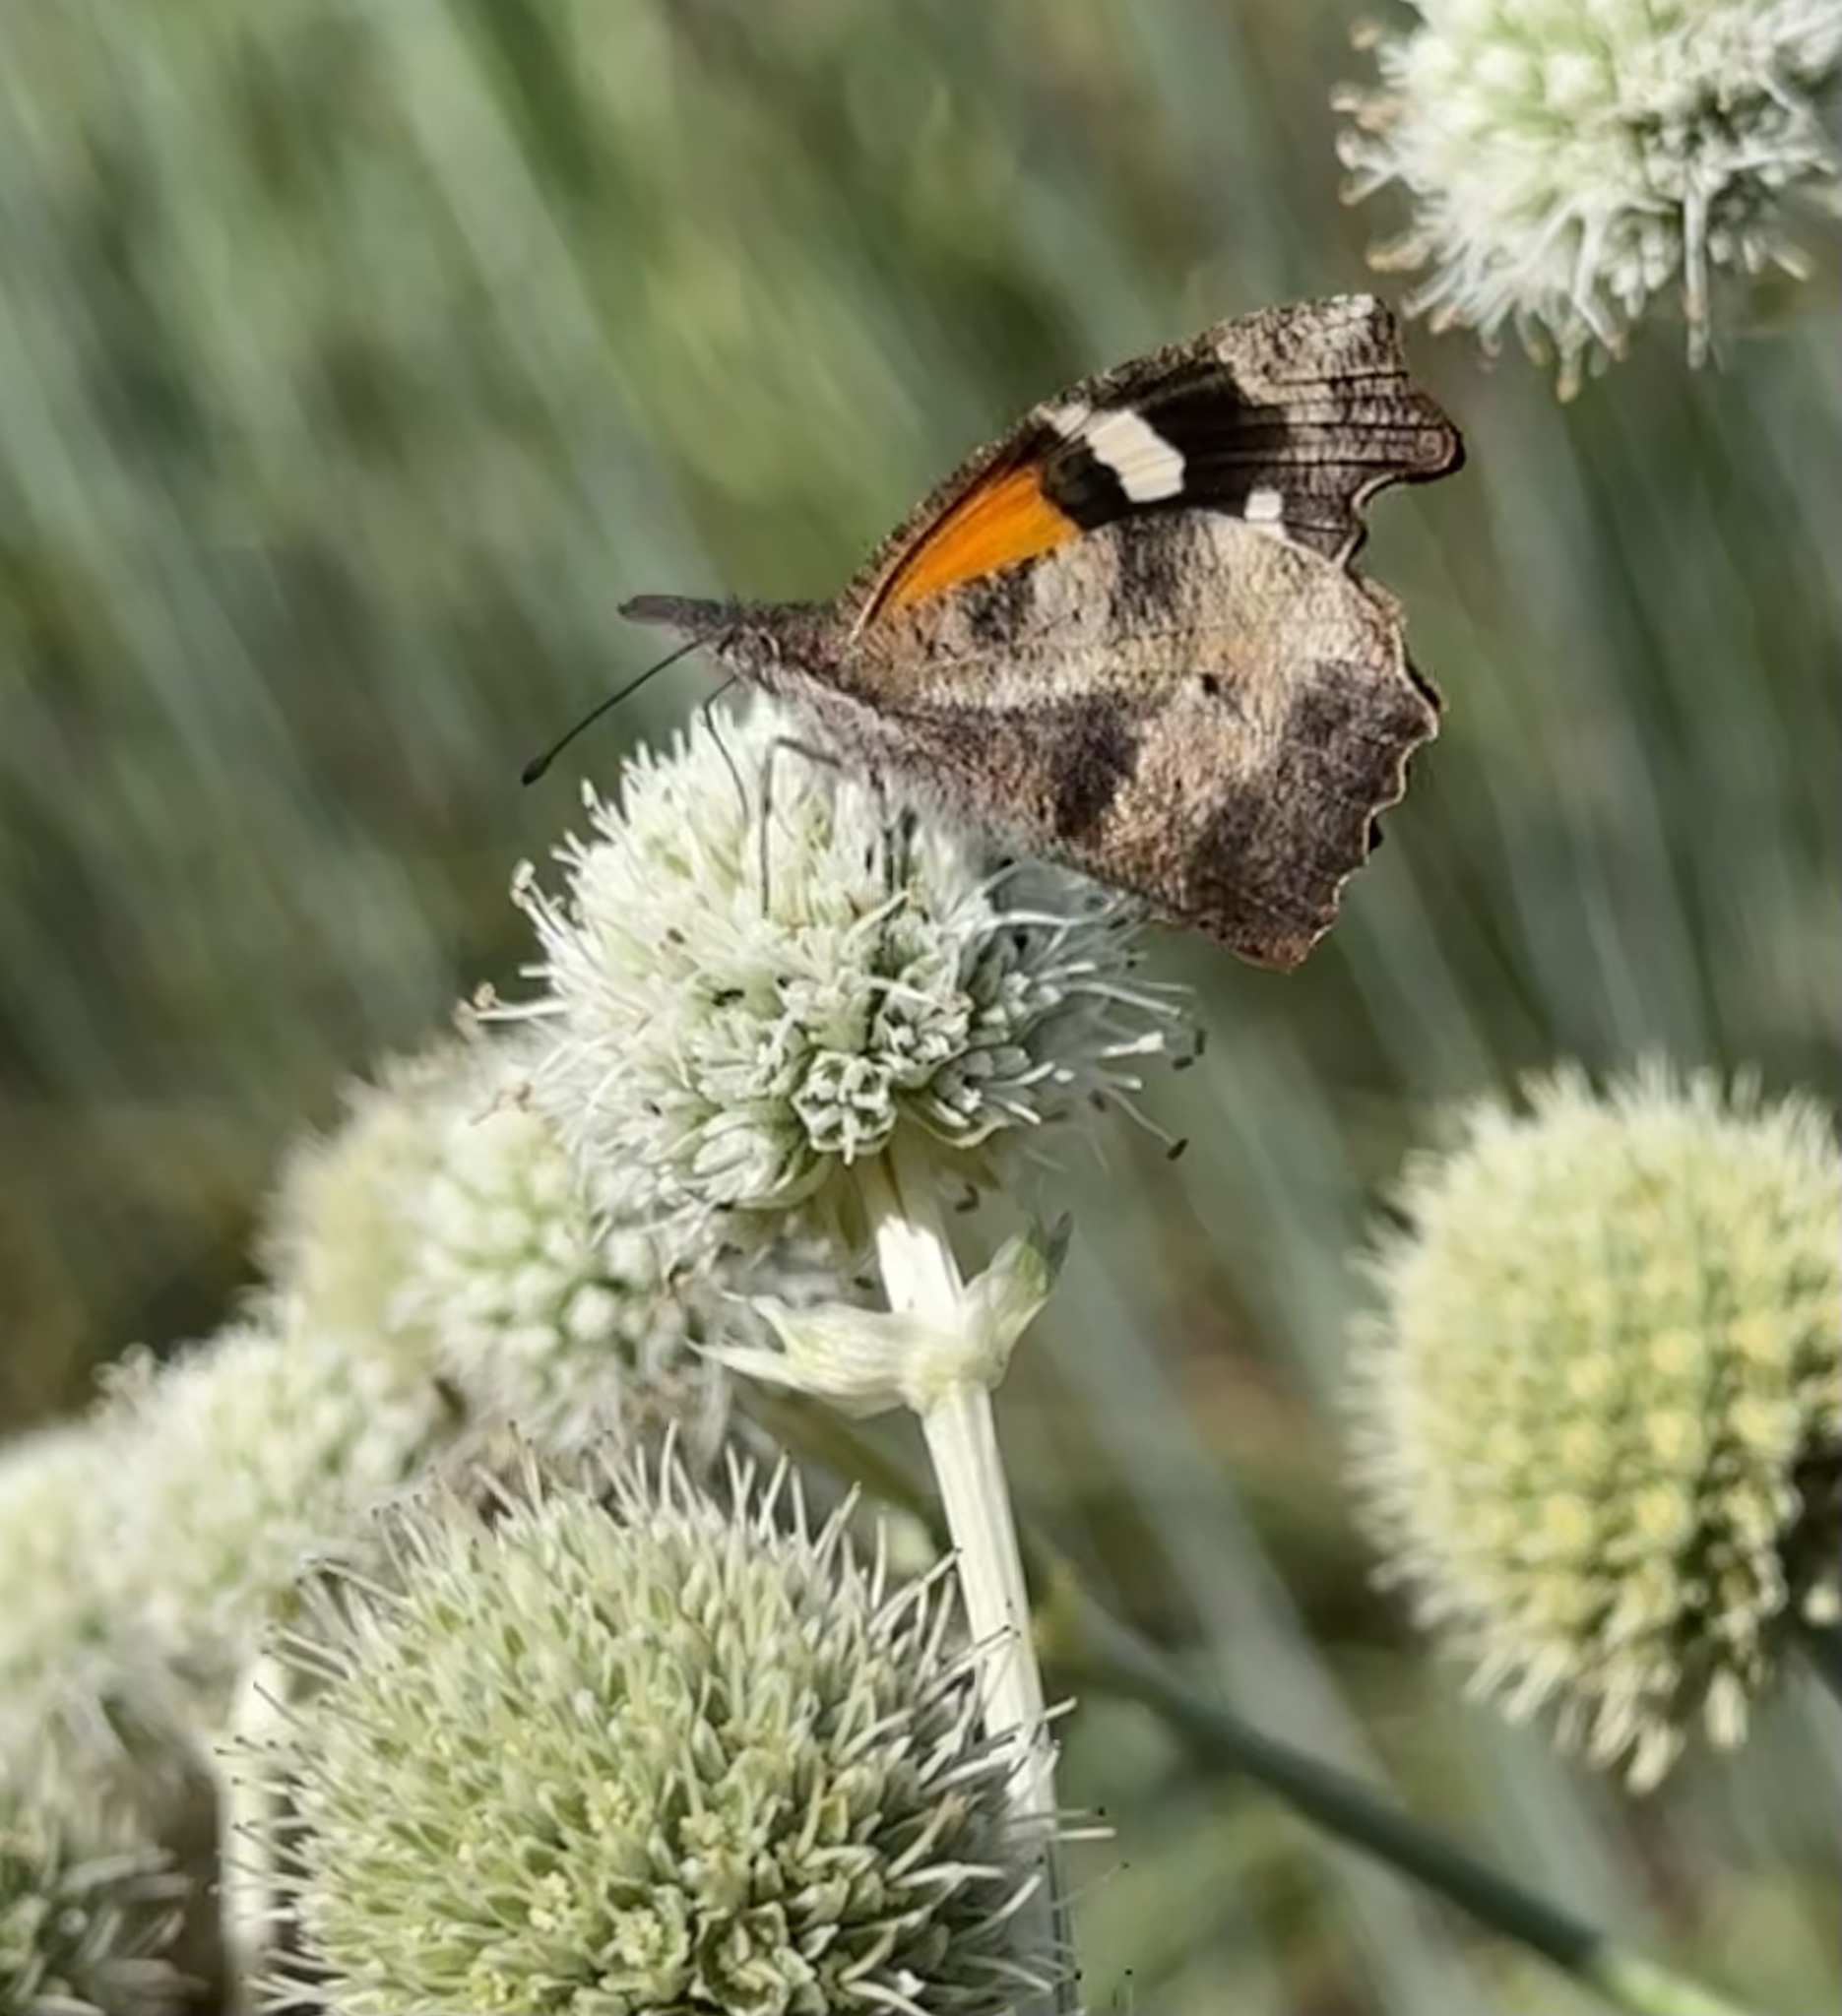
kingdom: Animalia
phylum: Arthropoda
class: Insecta
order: Lepidoptera
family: Nymphalidae
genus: Libytheana
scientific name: Libytheana carinenta
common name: American snout
